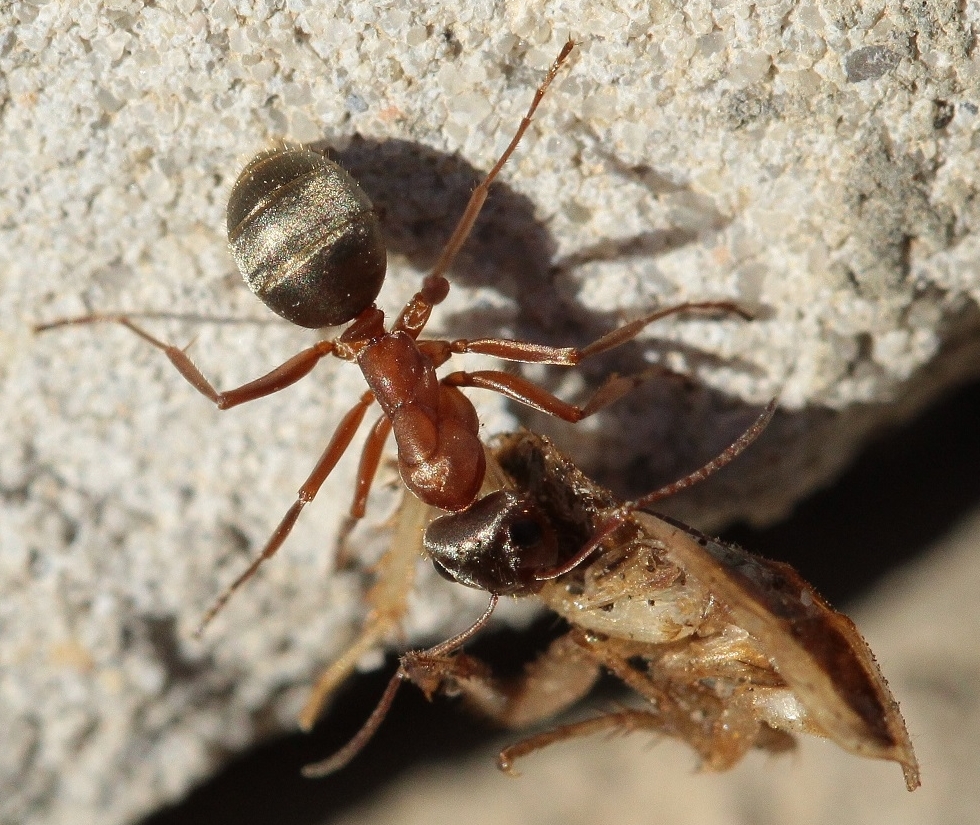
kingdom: Animalia
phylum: Arthropoda
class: Insecta
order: Hymenoptera
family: Formicidae
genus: Formica
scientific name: Formica cinerea
